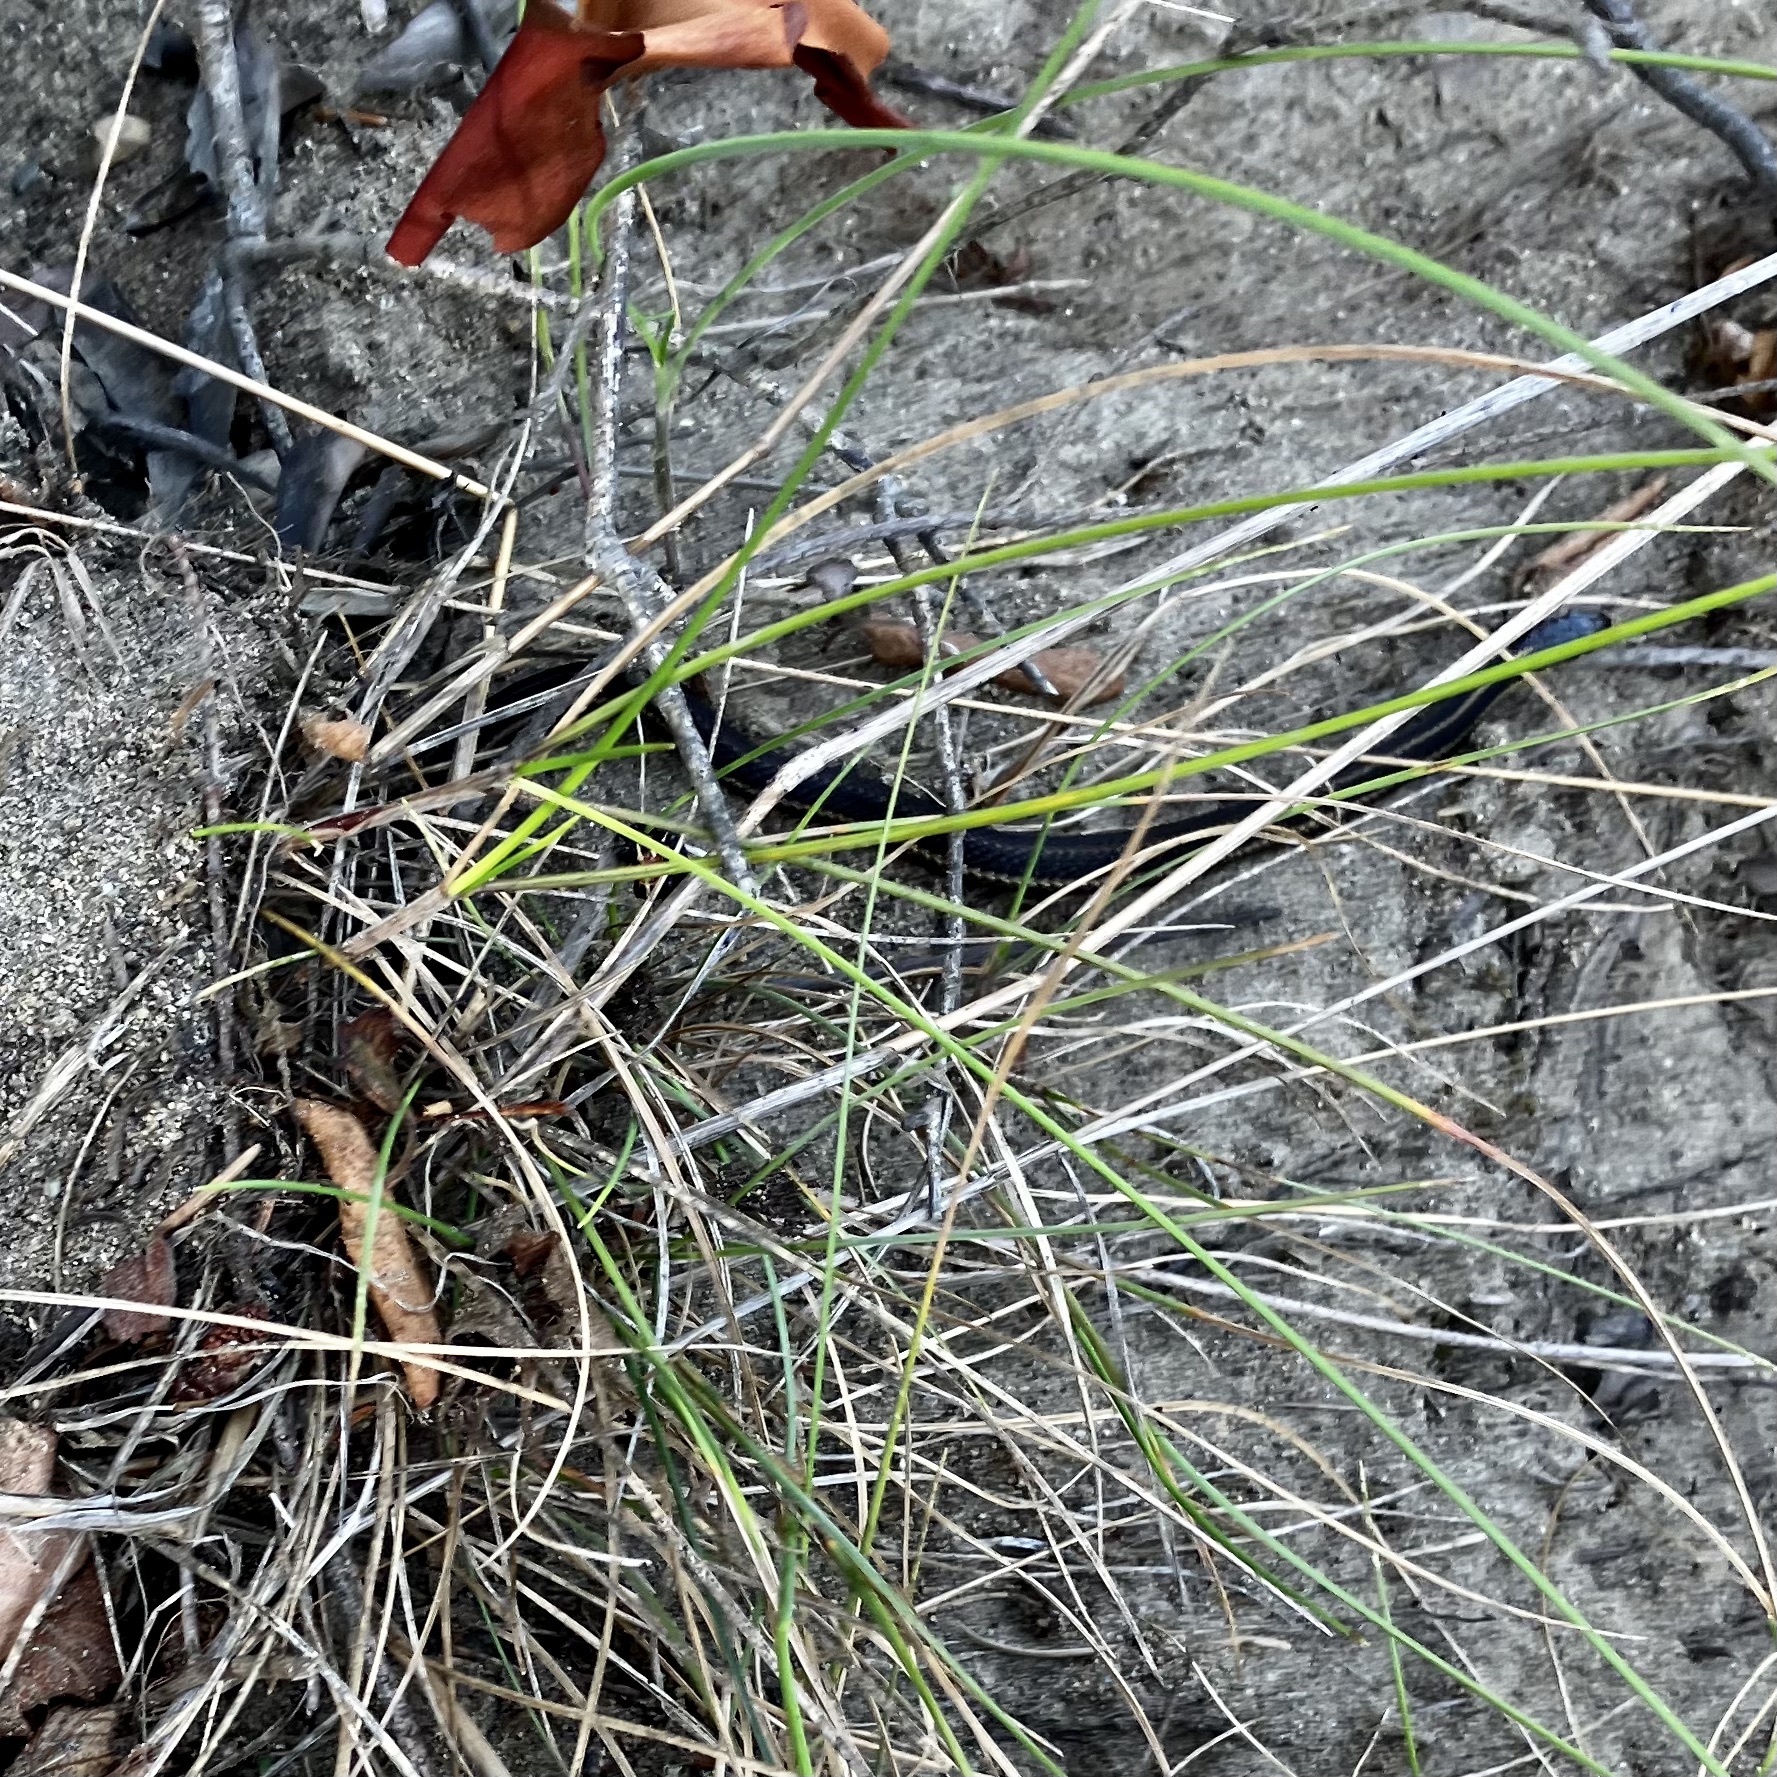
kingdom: Animalia
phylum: Chordata
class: Squamata
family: Colubridae
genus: Thamnophis
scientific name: Thamnophis ordinoides
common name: Northwestern garter snake
